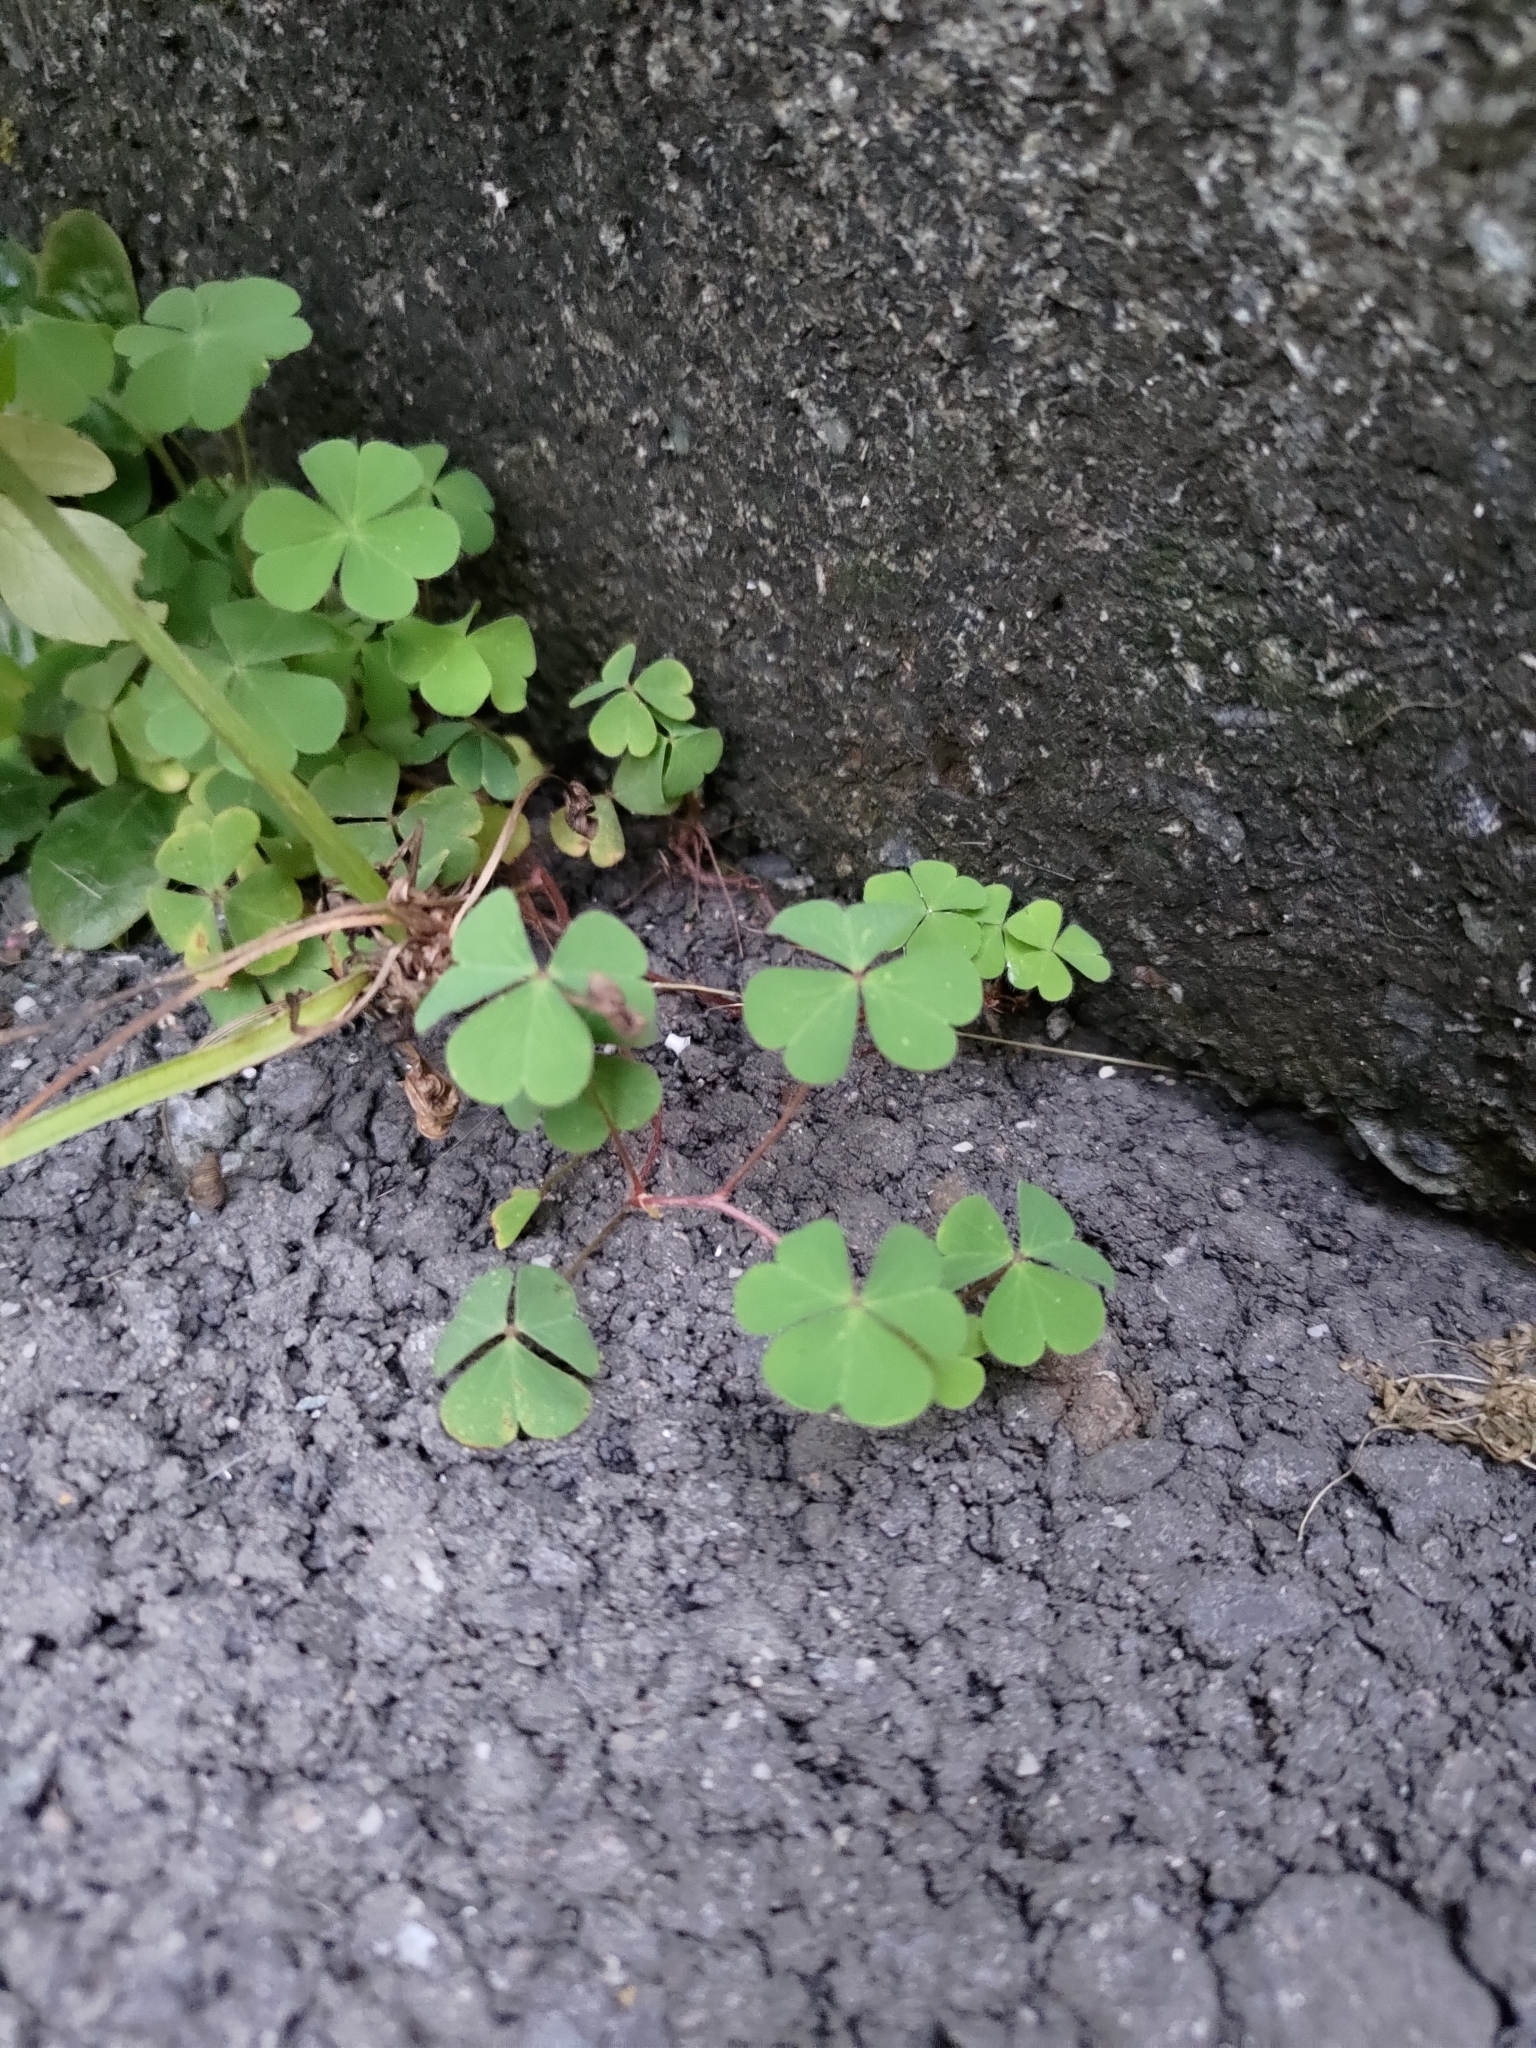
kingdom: Plantae
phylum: Tracheophyta
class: Magnoliopsida
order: Oxalidales
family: Oxalidaceae
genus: Oxalis
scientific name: Oxalis corniculata
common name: Procumbent yellow-sorrel
